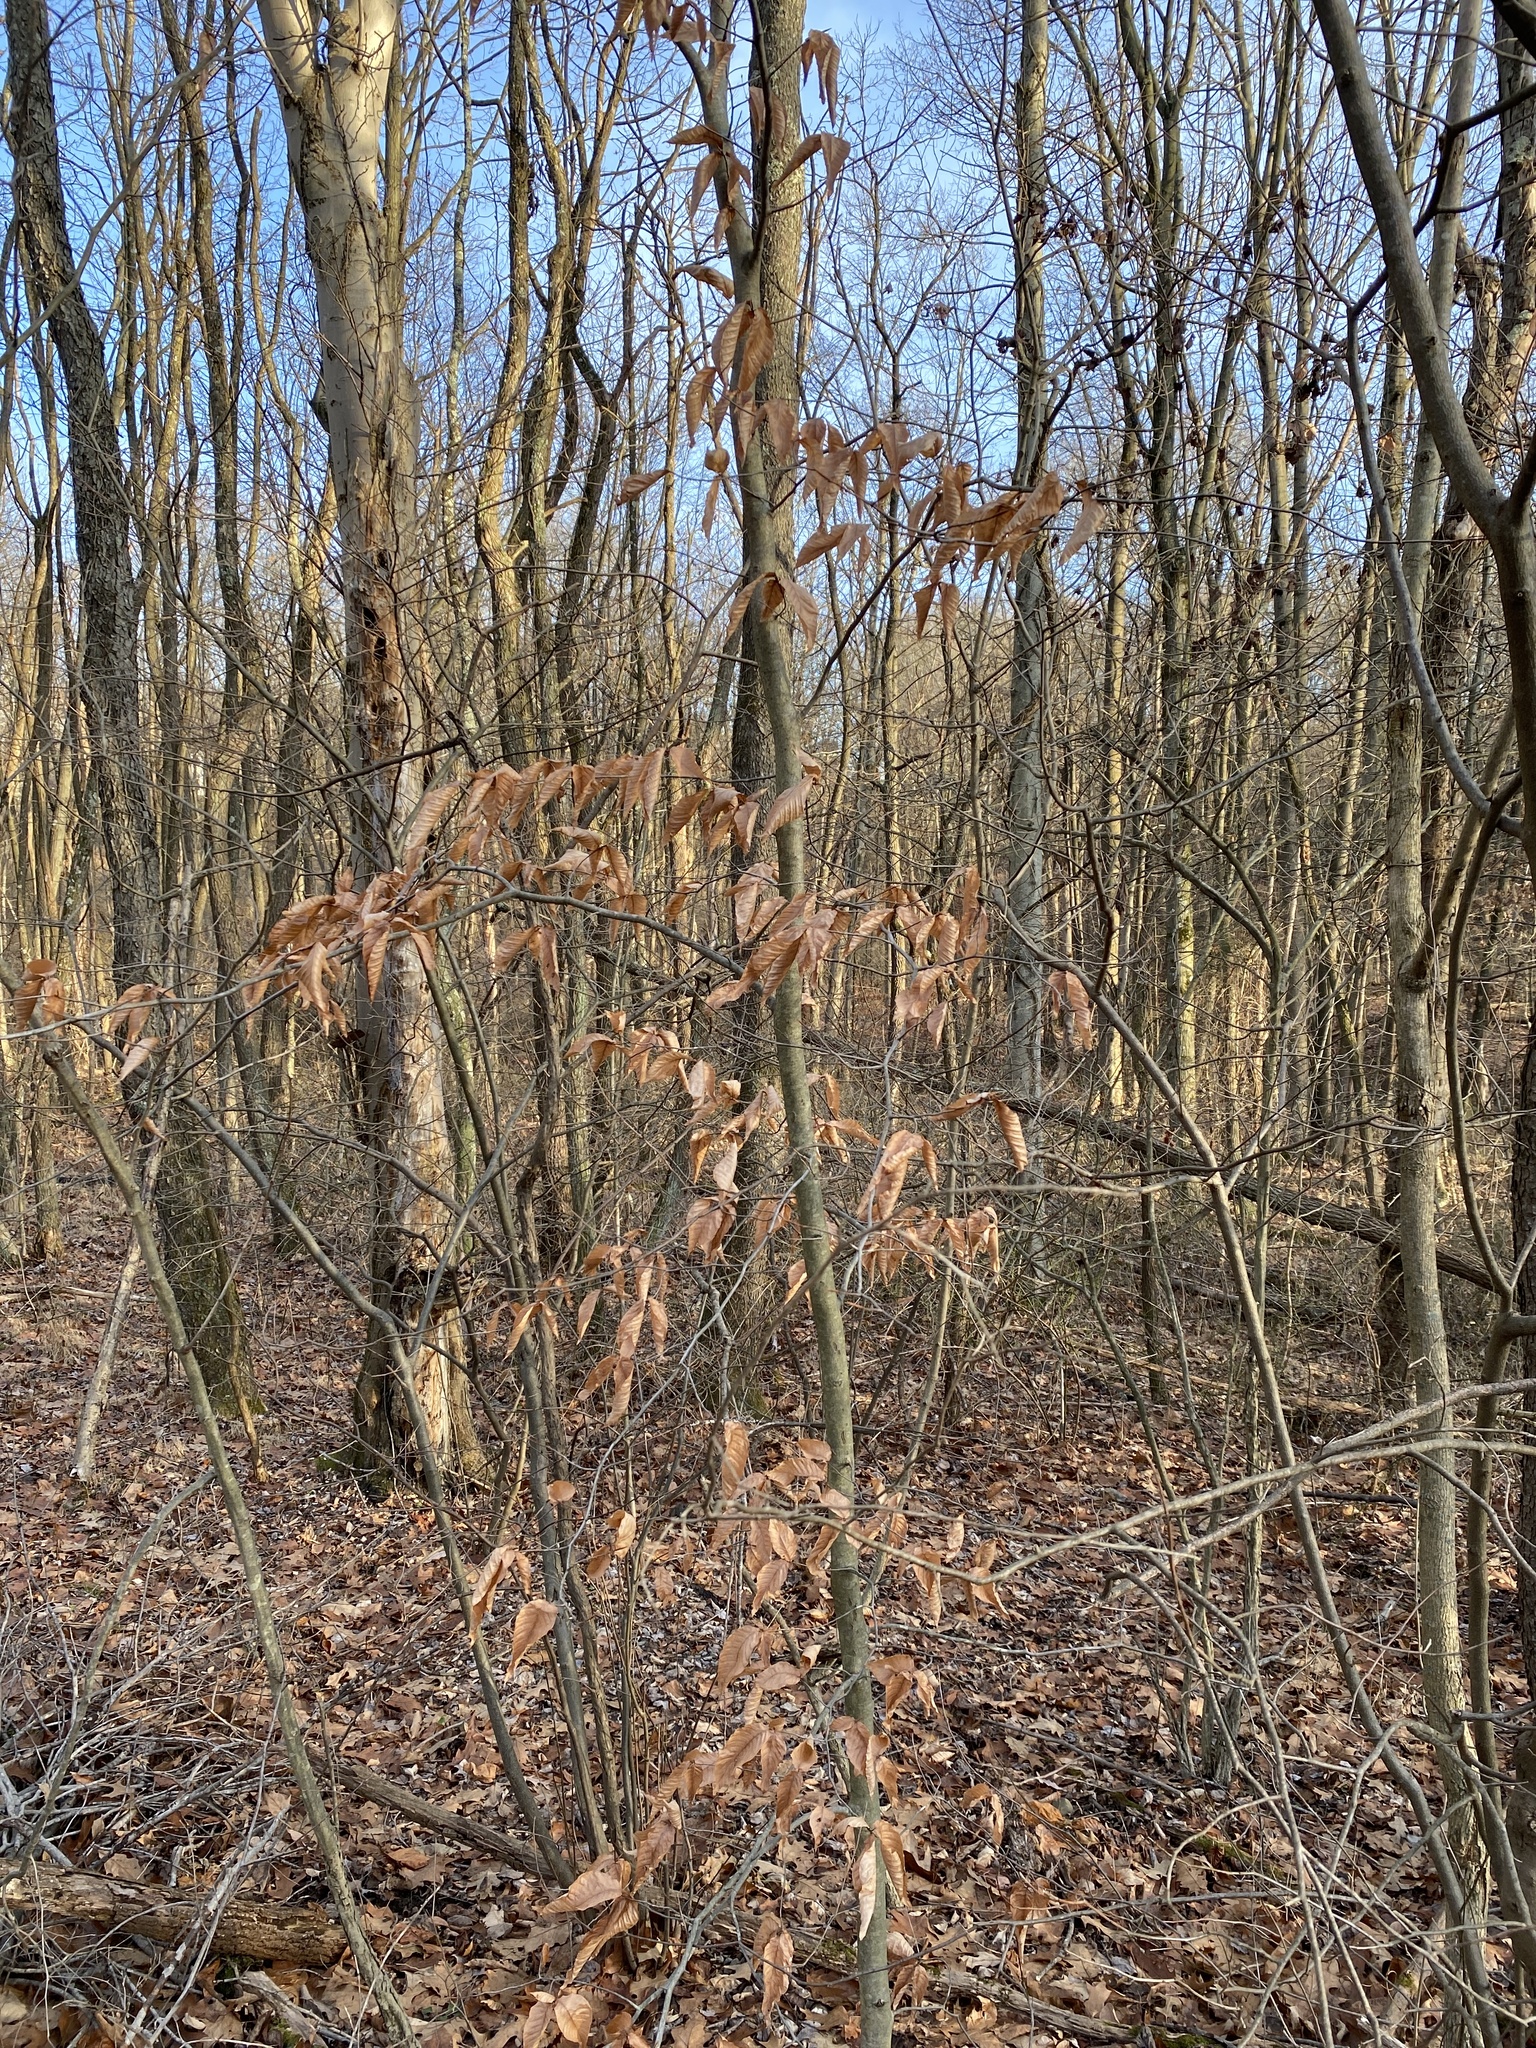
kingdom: Plantae
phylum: Tracheophyta
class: Magnoliopsida
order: Fagales
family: Fagaceae
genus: Fagus
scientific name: Fagus grandifolia
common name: American beech
